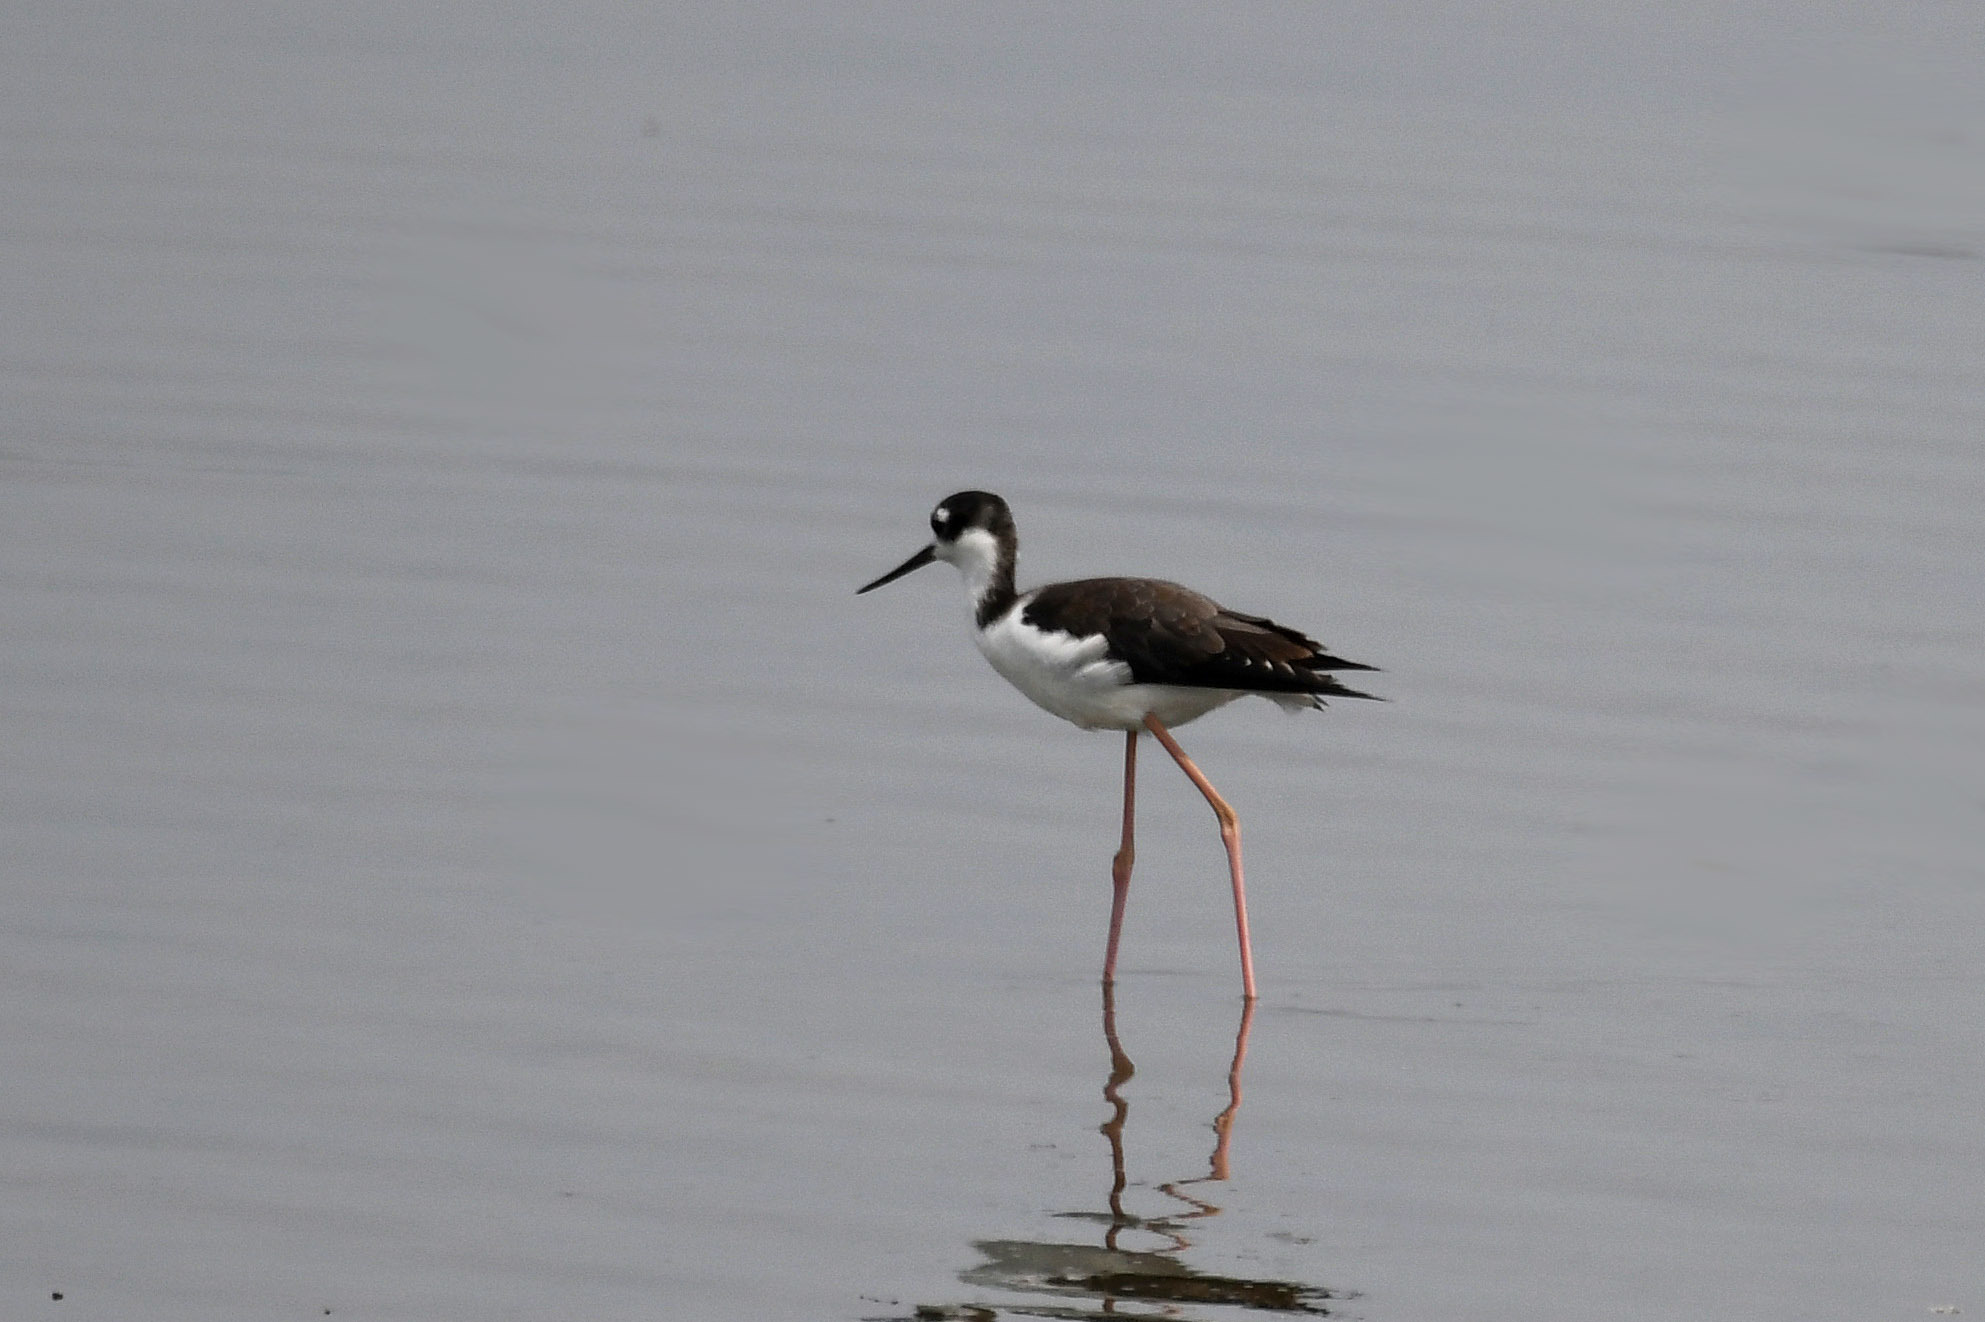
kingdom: Animalia
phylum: Chordata
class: Aves
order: Charadriiformes
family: Recurvirostridae
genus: Himantopus
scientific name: Himantopus mexicanus
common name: Black-necked stilt
